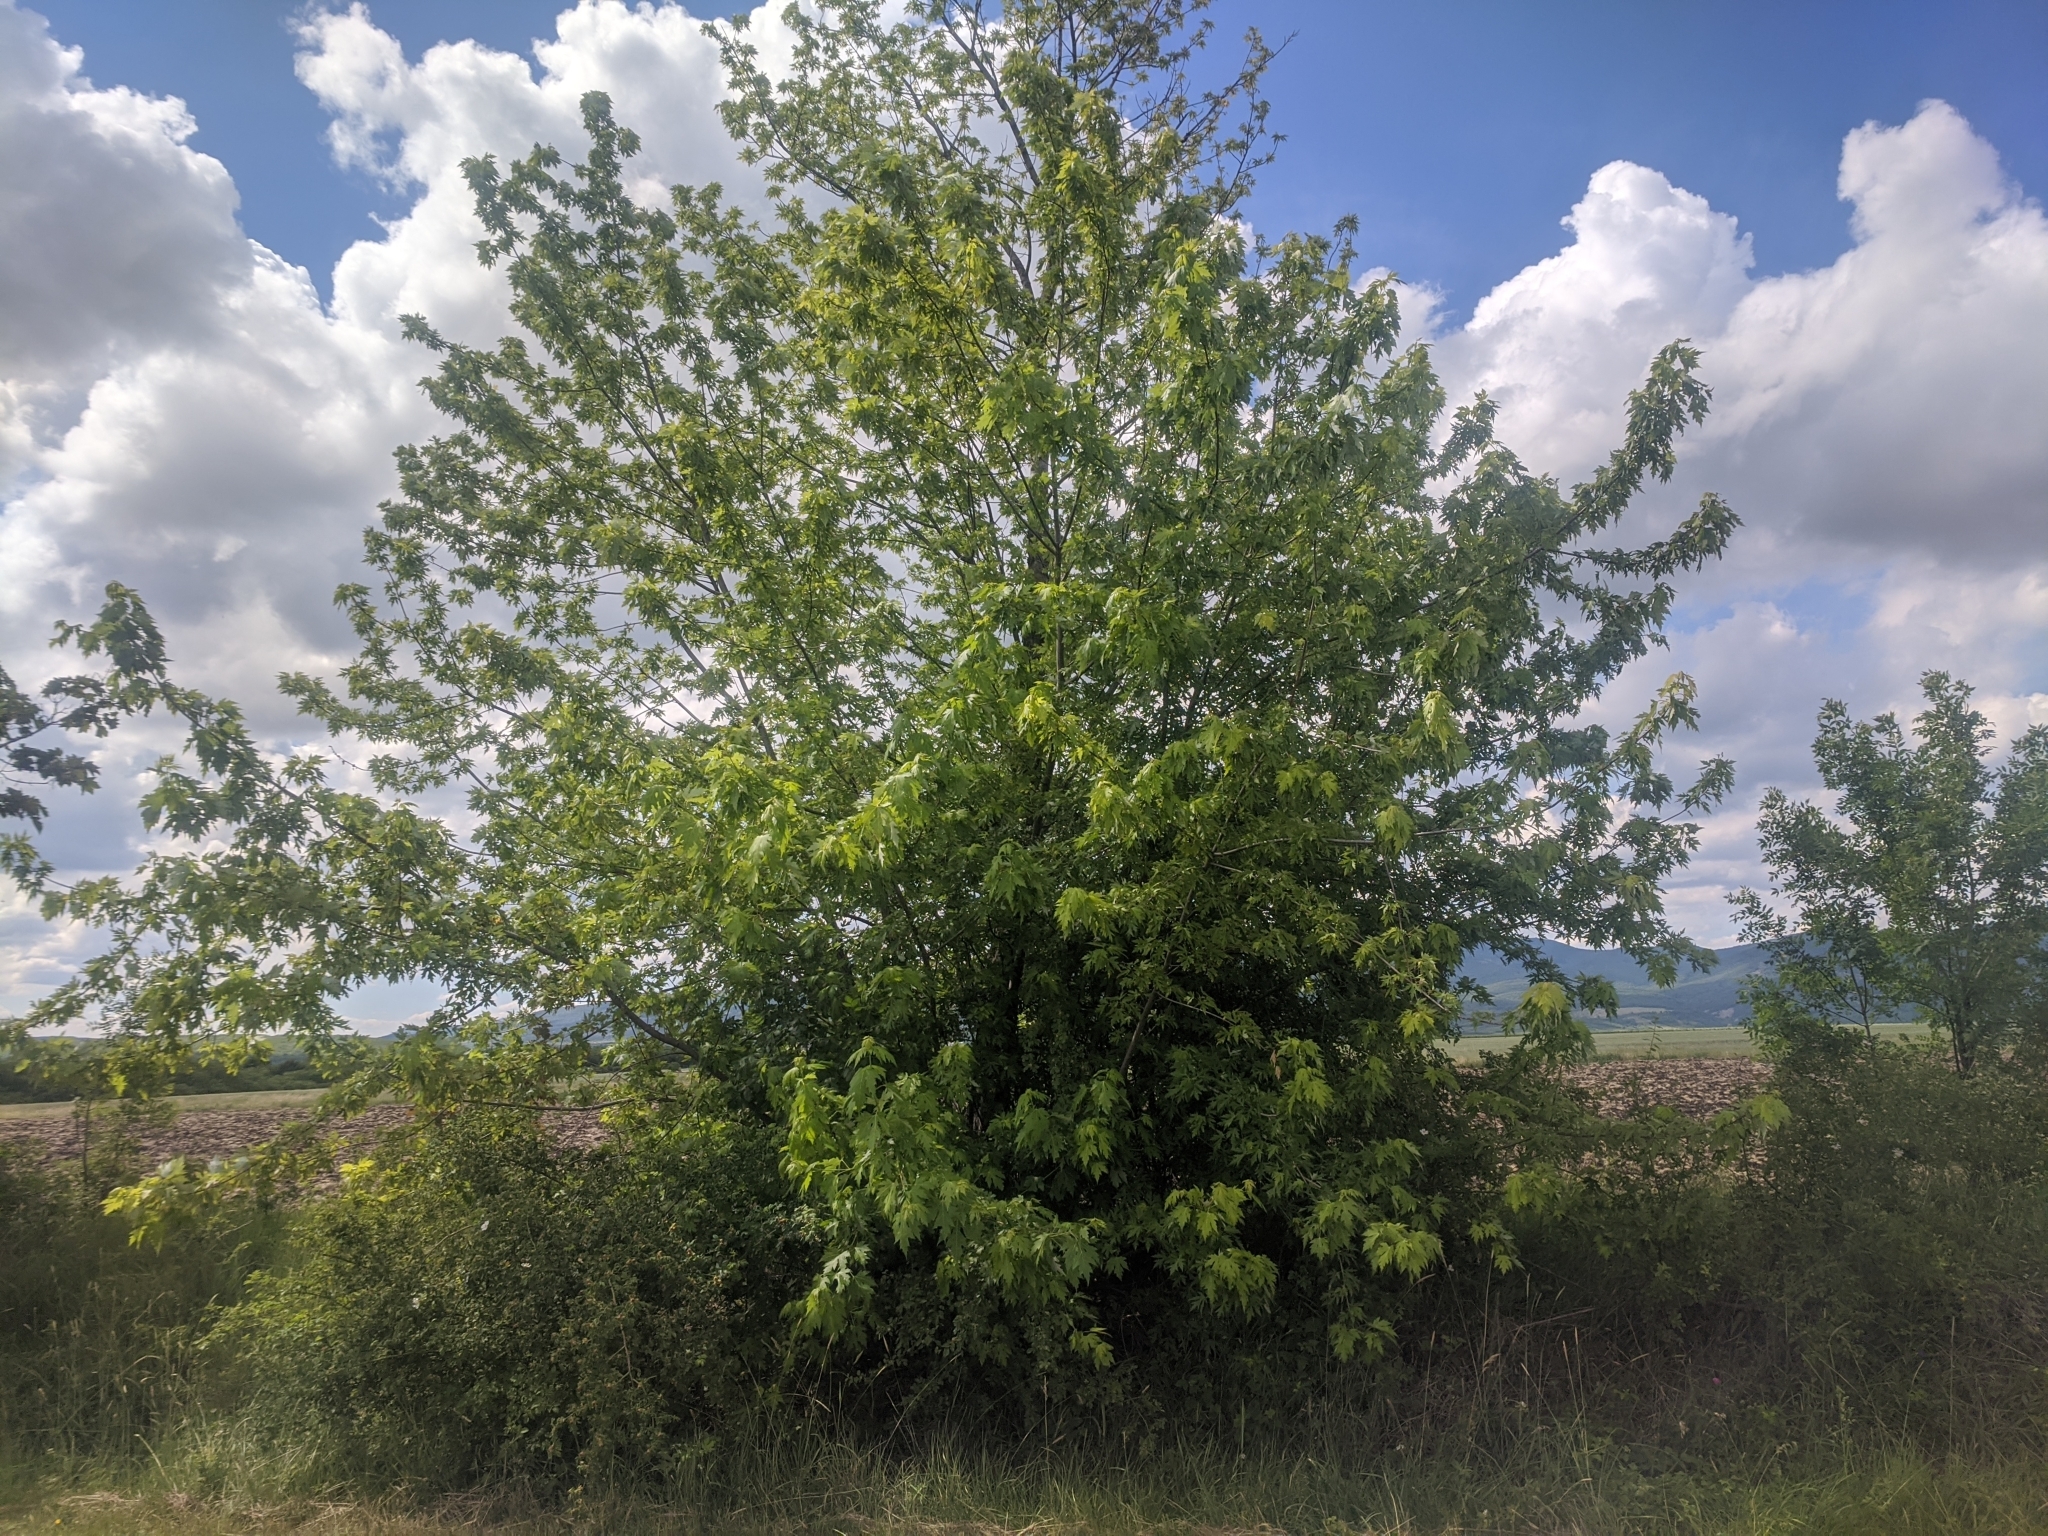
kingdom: Plantae
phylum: Tracheophyta
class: Magnoliopsida
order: Sapindales
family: Sapindaceae
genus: Acer
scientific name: Acer saccharinum
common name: Silver maple
